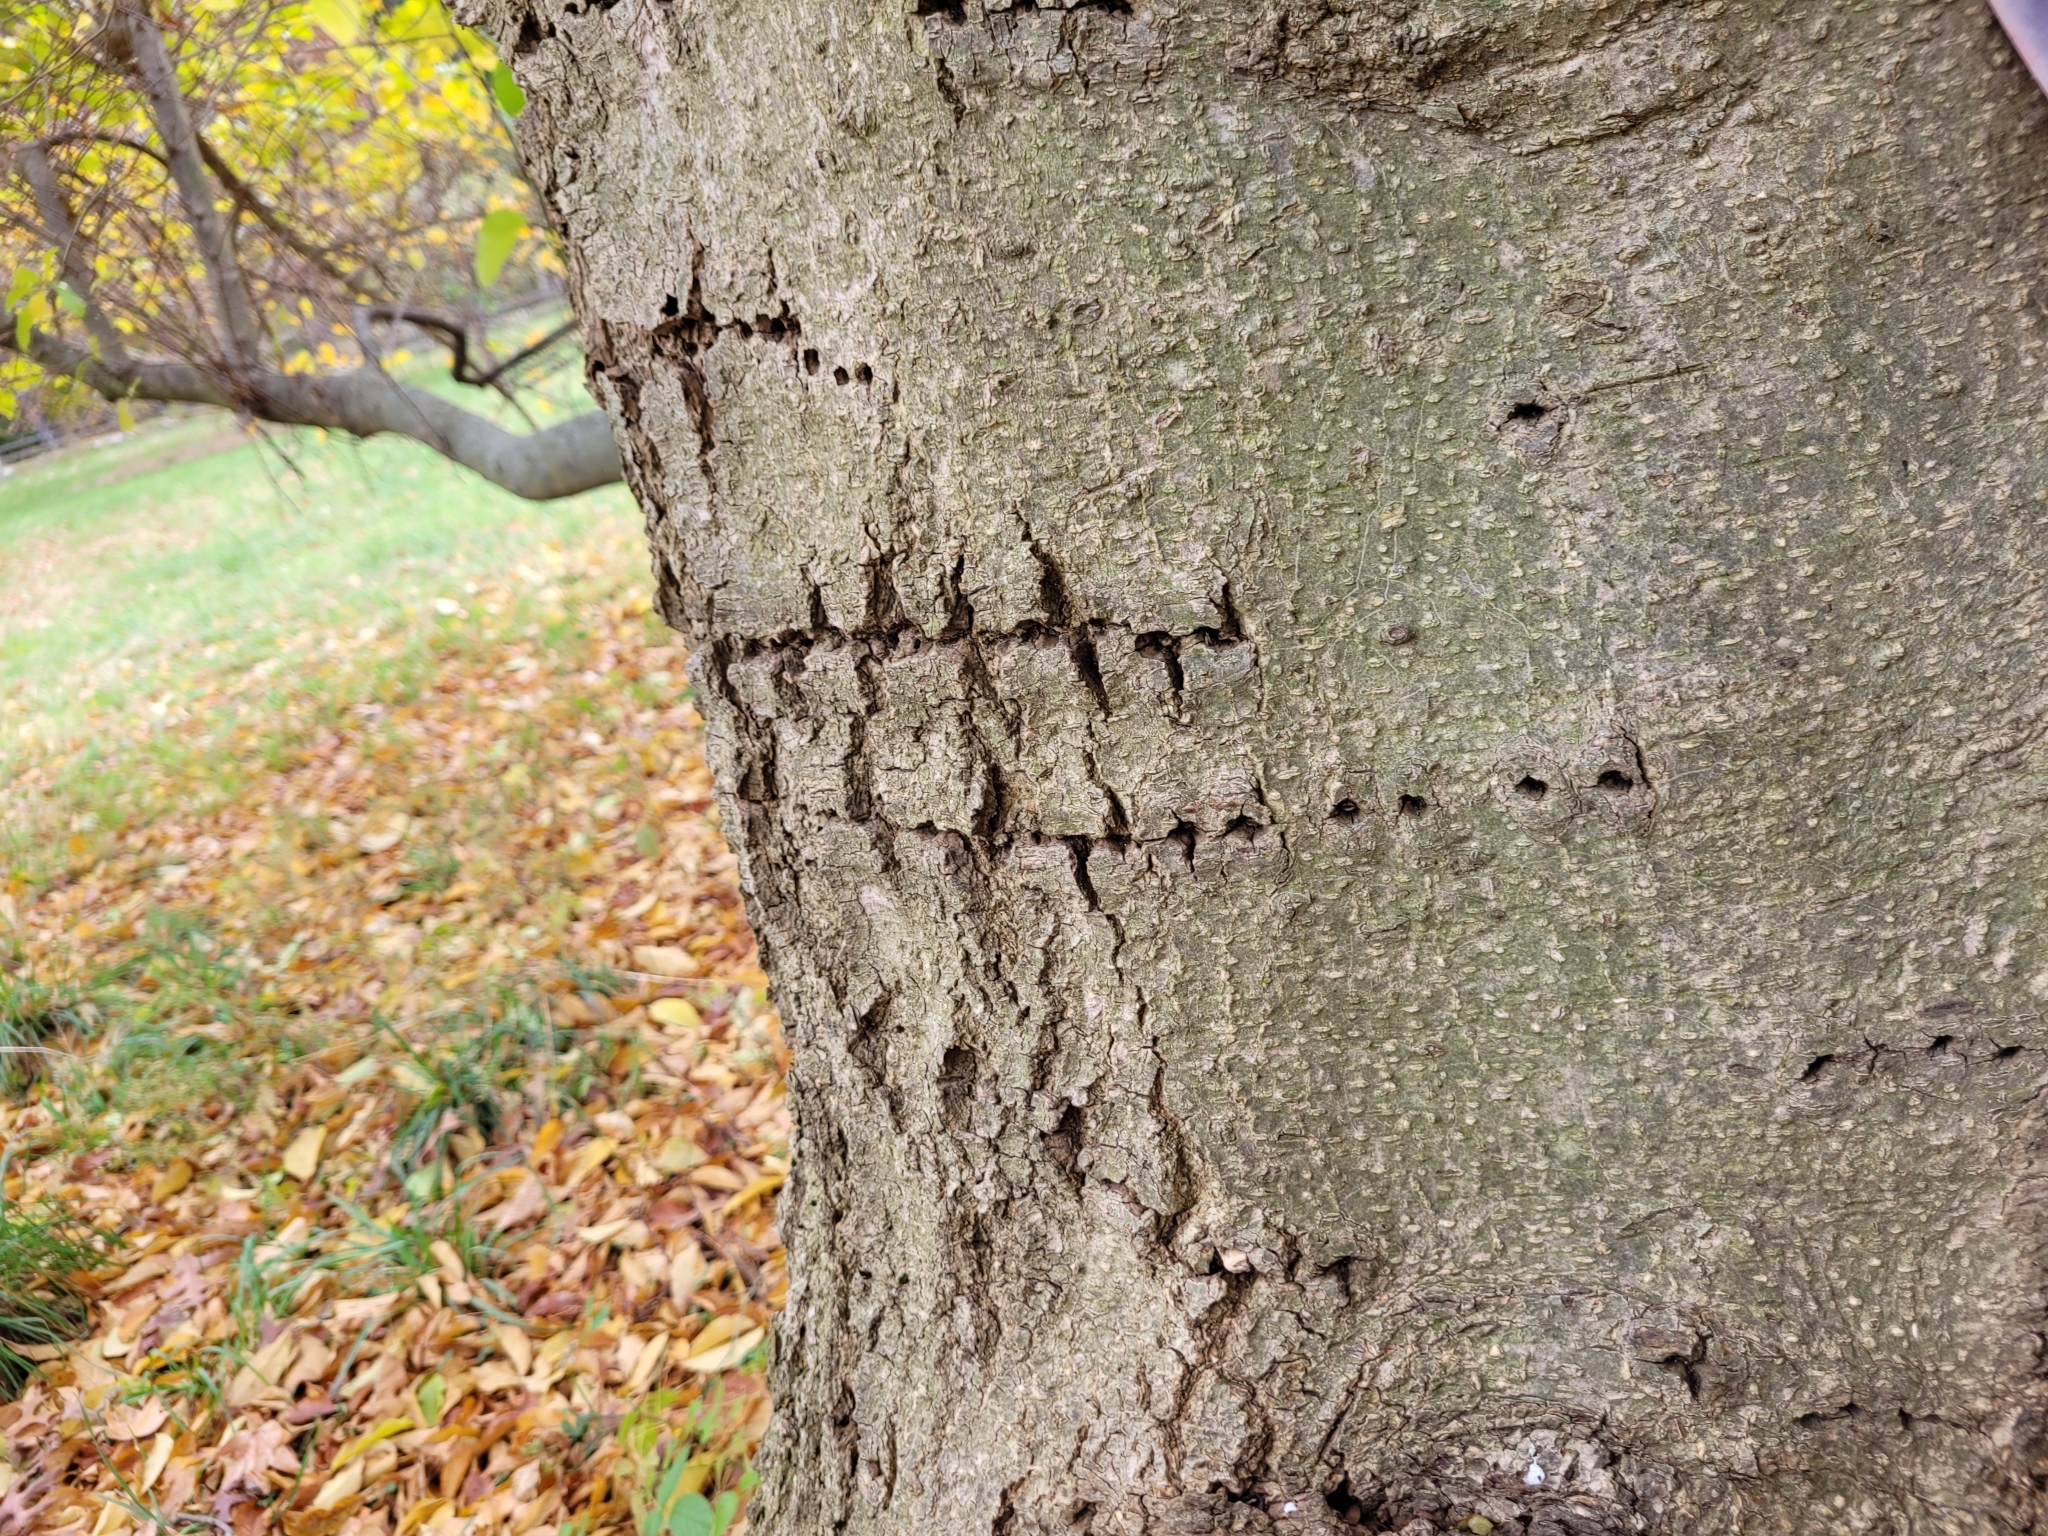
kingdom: Animalia
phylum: Chordata
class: Aves
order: Piciformes
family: Picidae
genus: Sphyrapicus
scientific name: Sphyrapicus varius
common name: Yellow-bellied sapsucker
